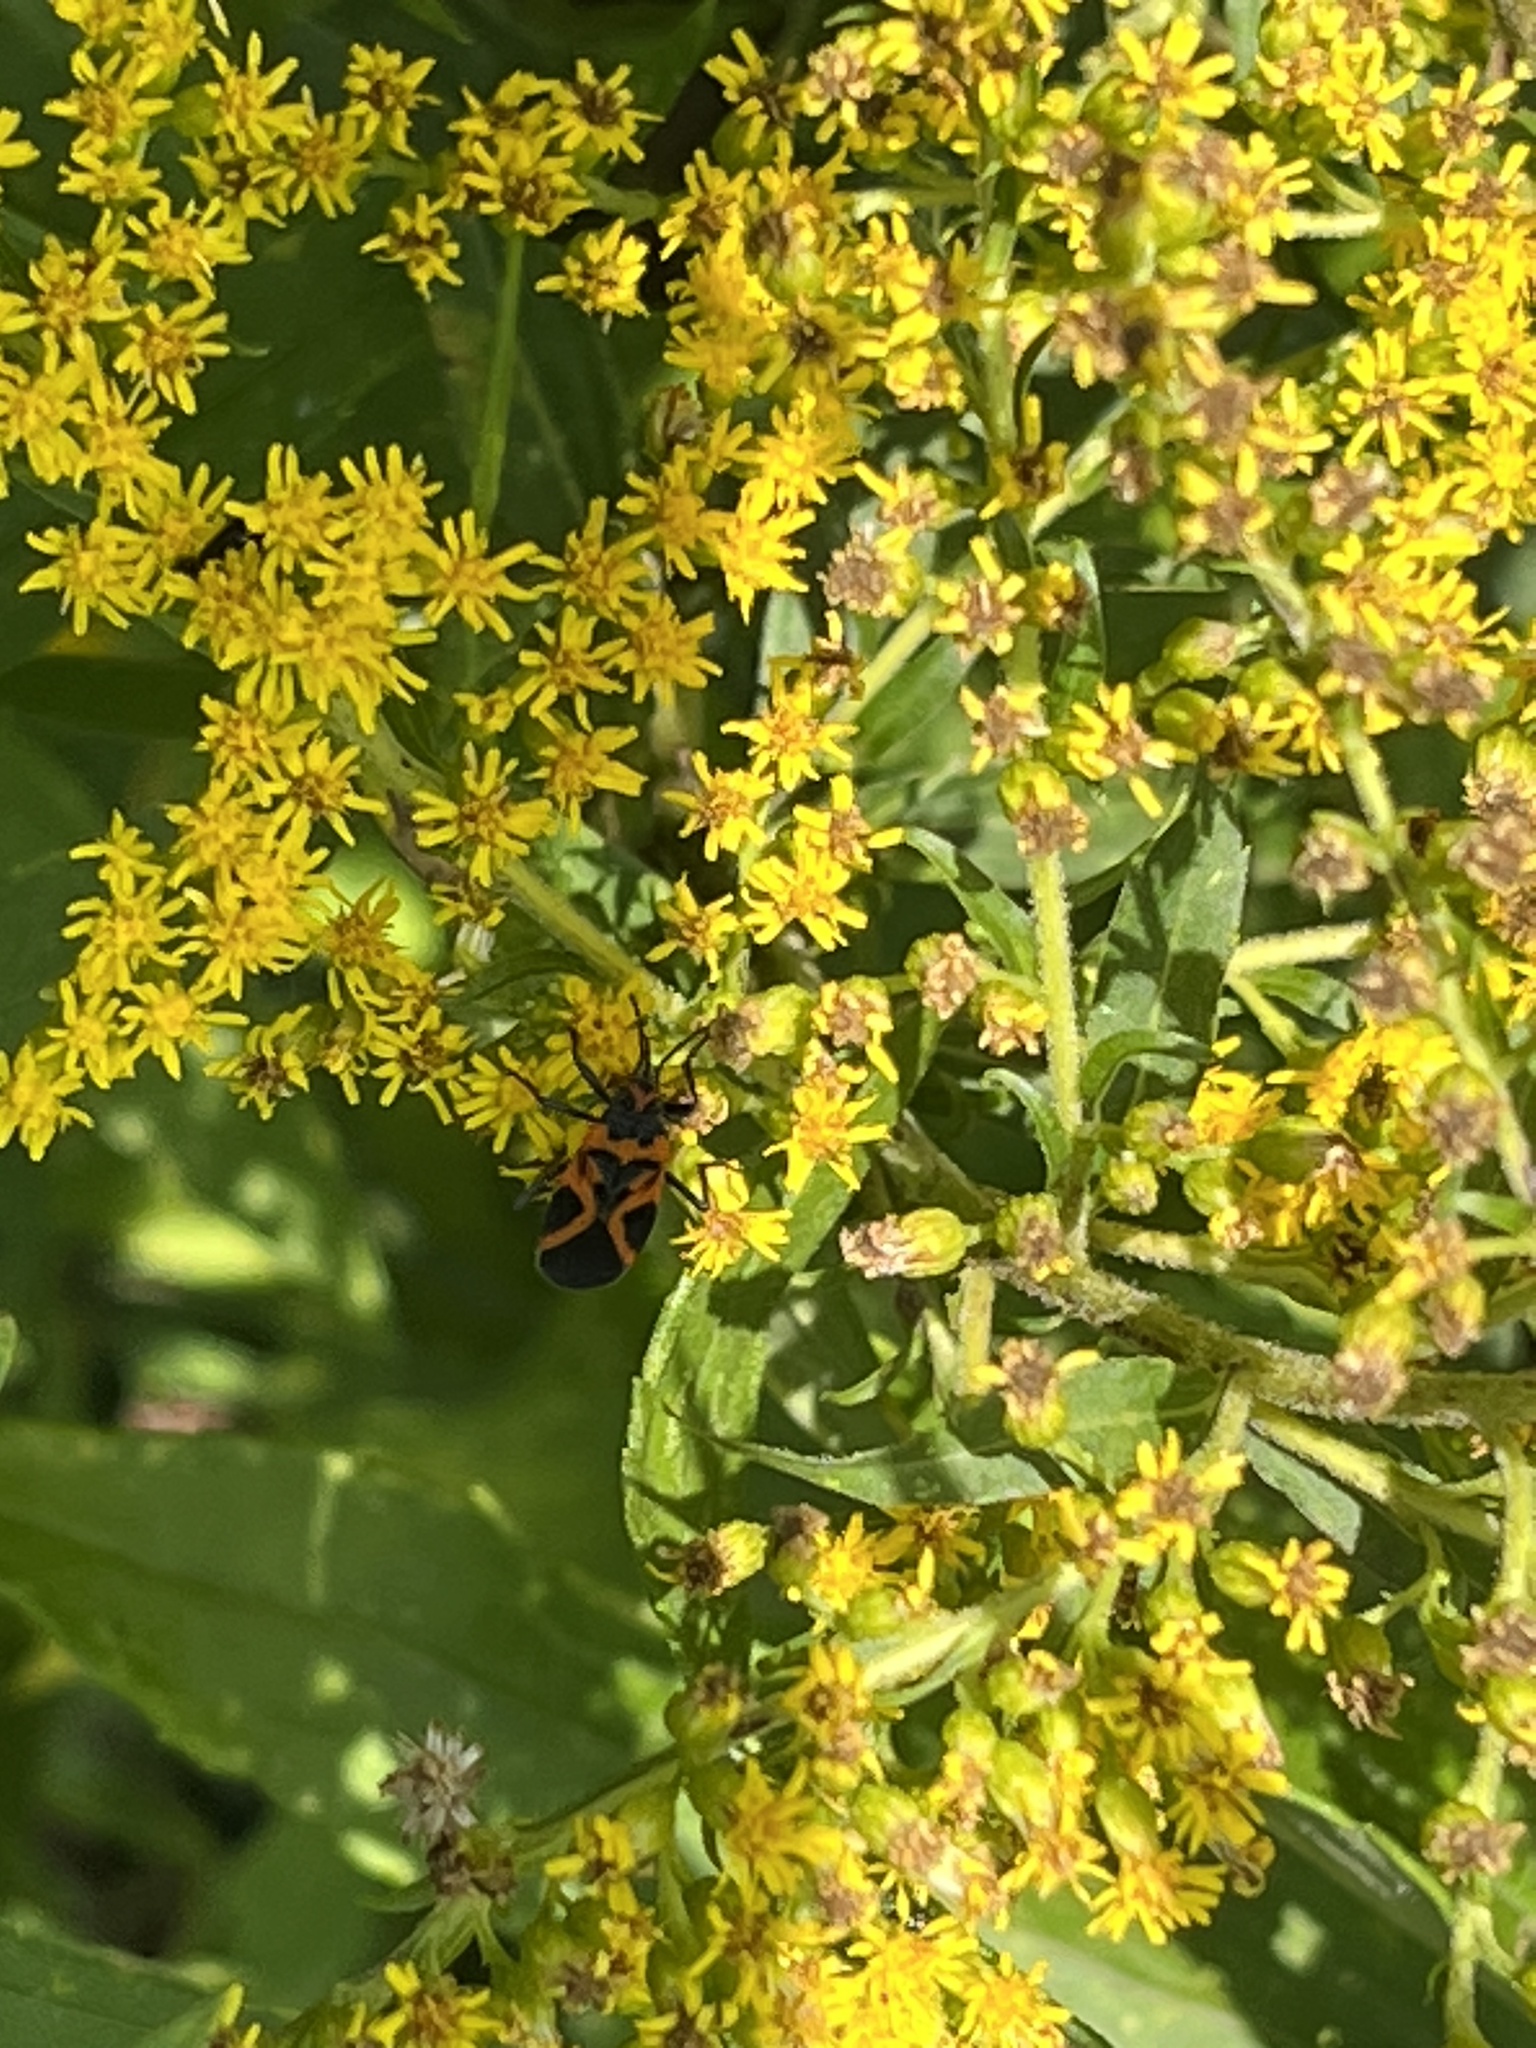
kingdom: Animalia
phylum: Arthropoda
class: Insecta
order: Hemiptera
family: Lygaeidae
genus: Lygaeus
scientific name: Lygaeus turcicus
